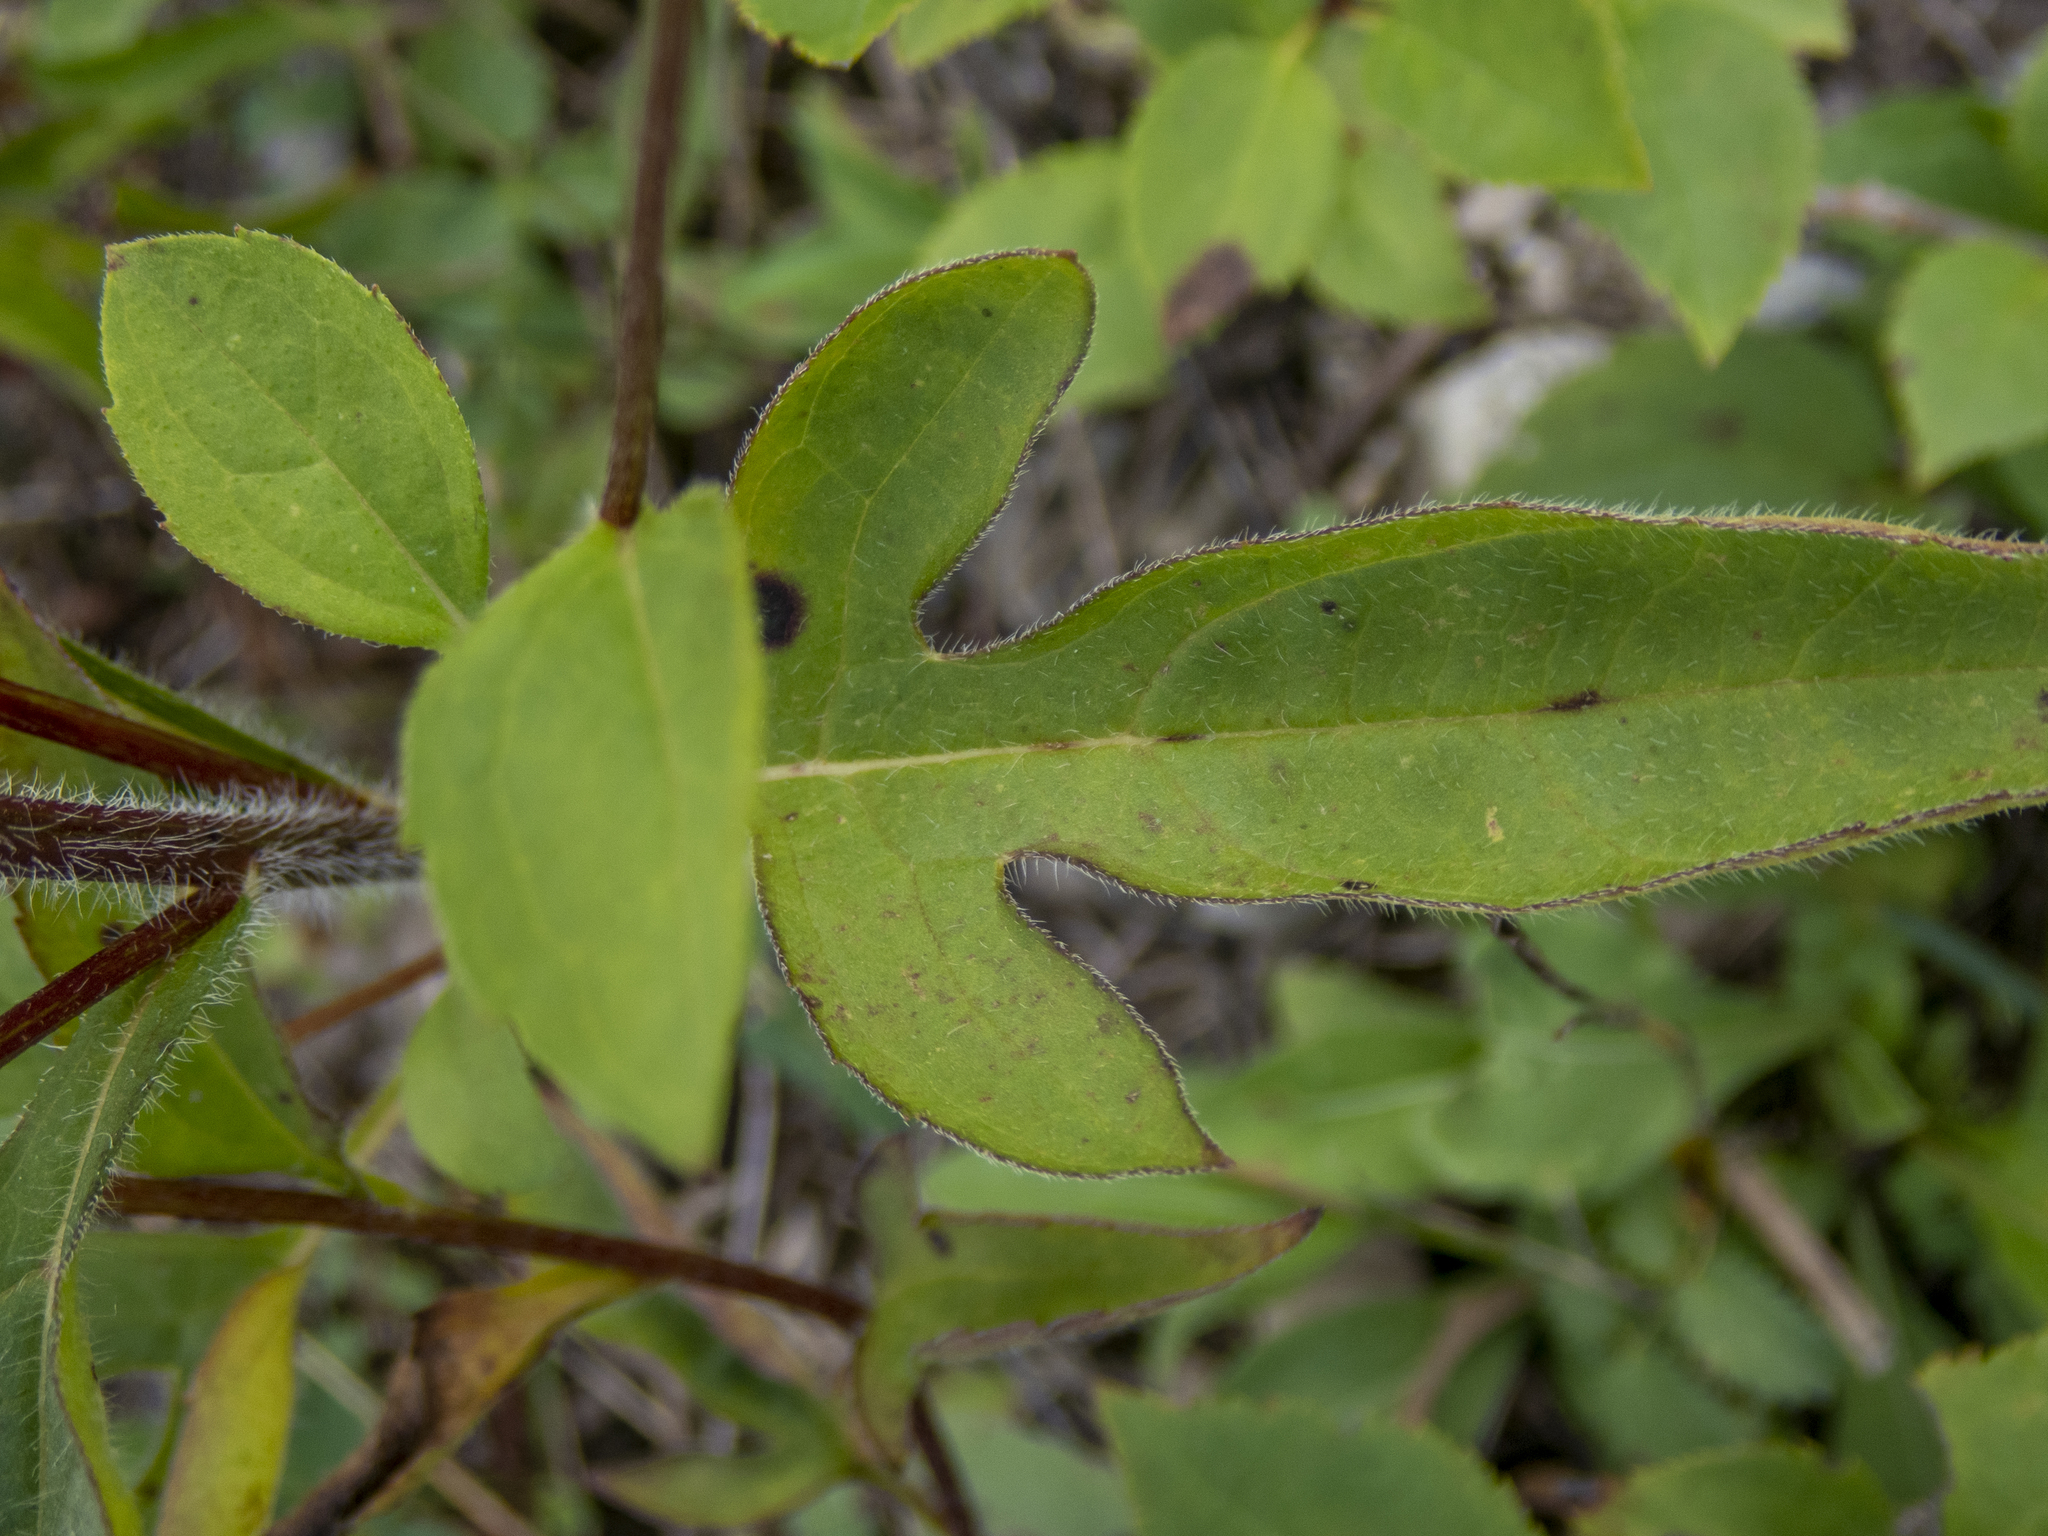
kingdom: Plantae
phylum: Tracheophyta
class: Magnoliopsida
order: Asterales
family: Asteraceae
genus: Rudbeckia
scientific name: Rudbeckia triloba
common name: Thin-leaved coneflower
